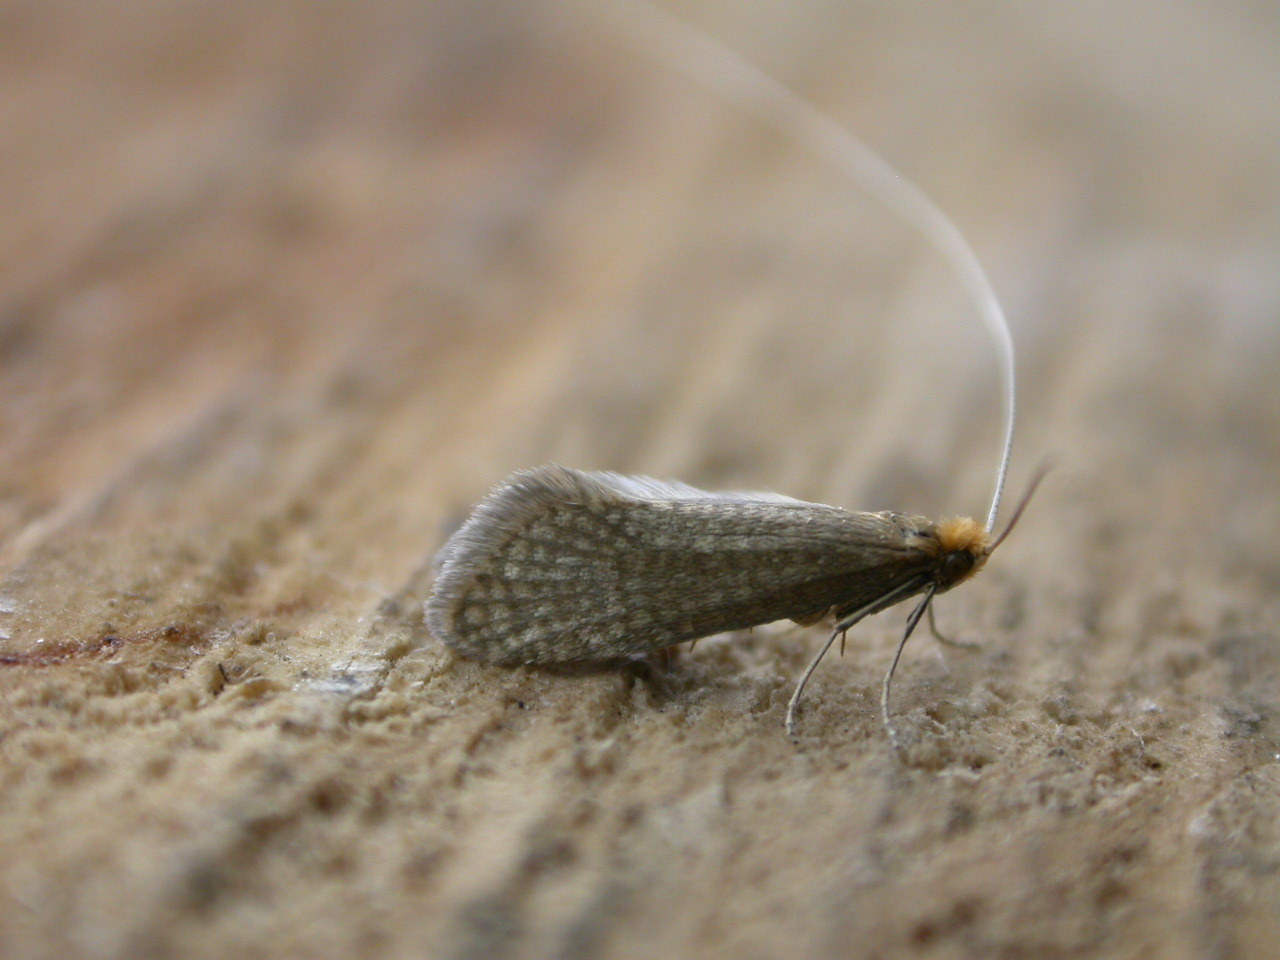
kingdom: Animalia
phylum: Arthropoda
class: Insecta
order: Lepidoptera
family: Adelidae
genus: Nematopogon
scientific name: Nematopogon adansoniella
